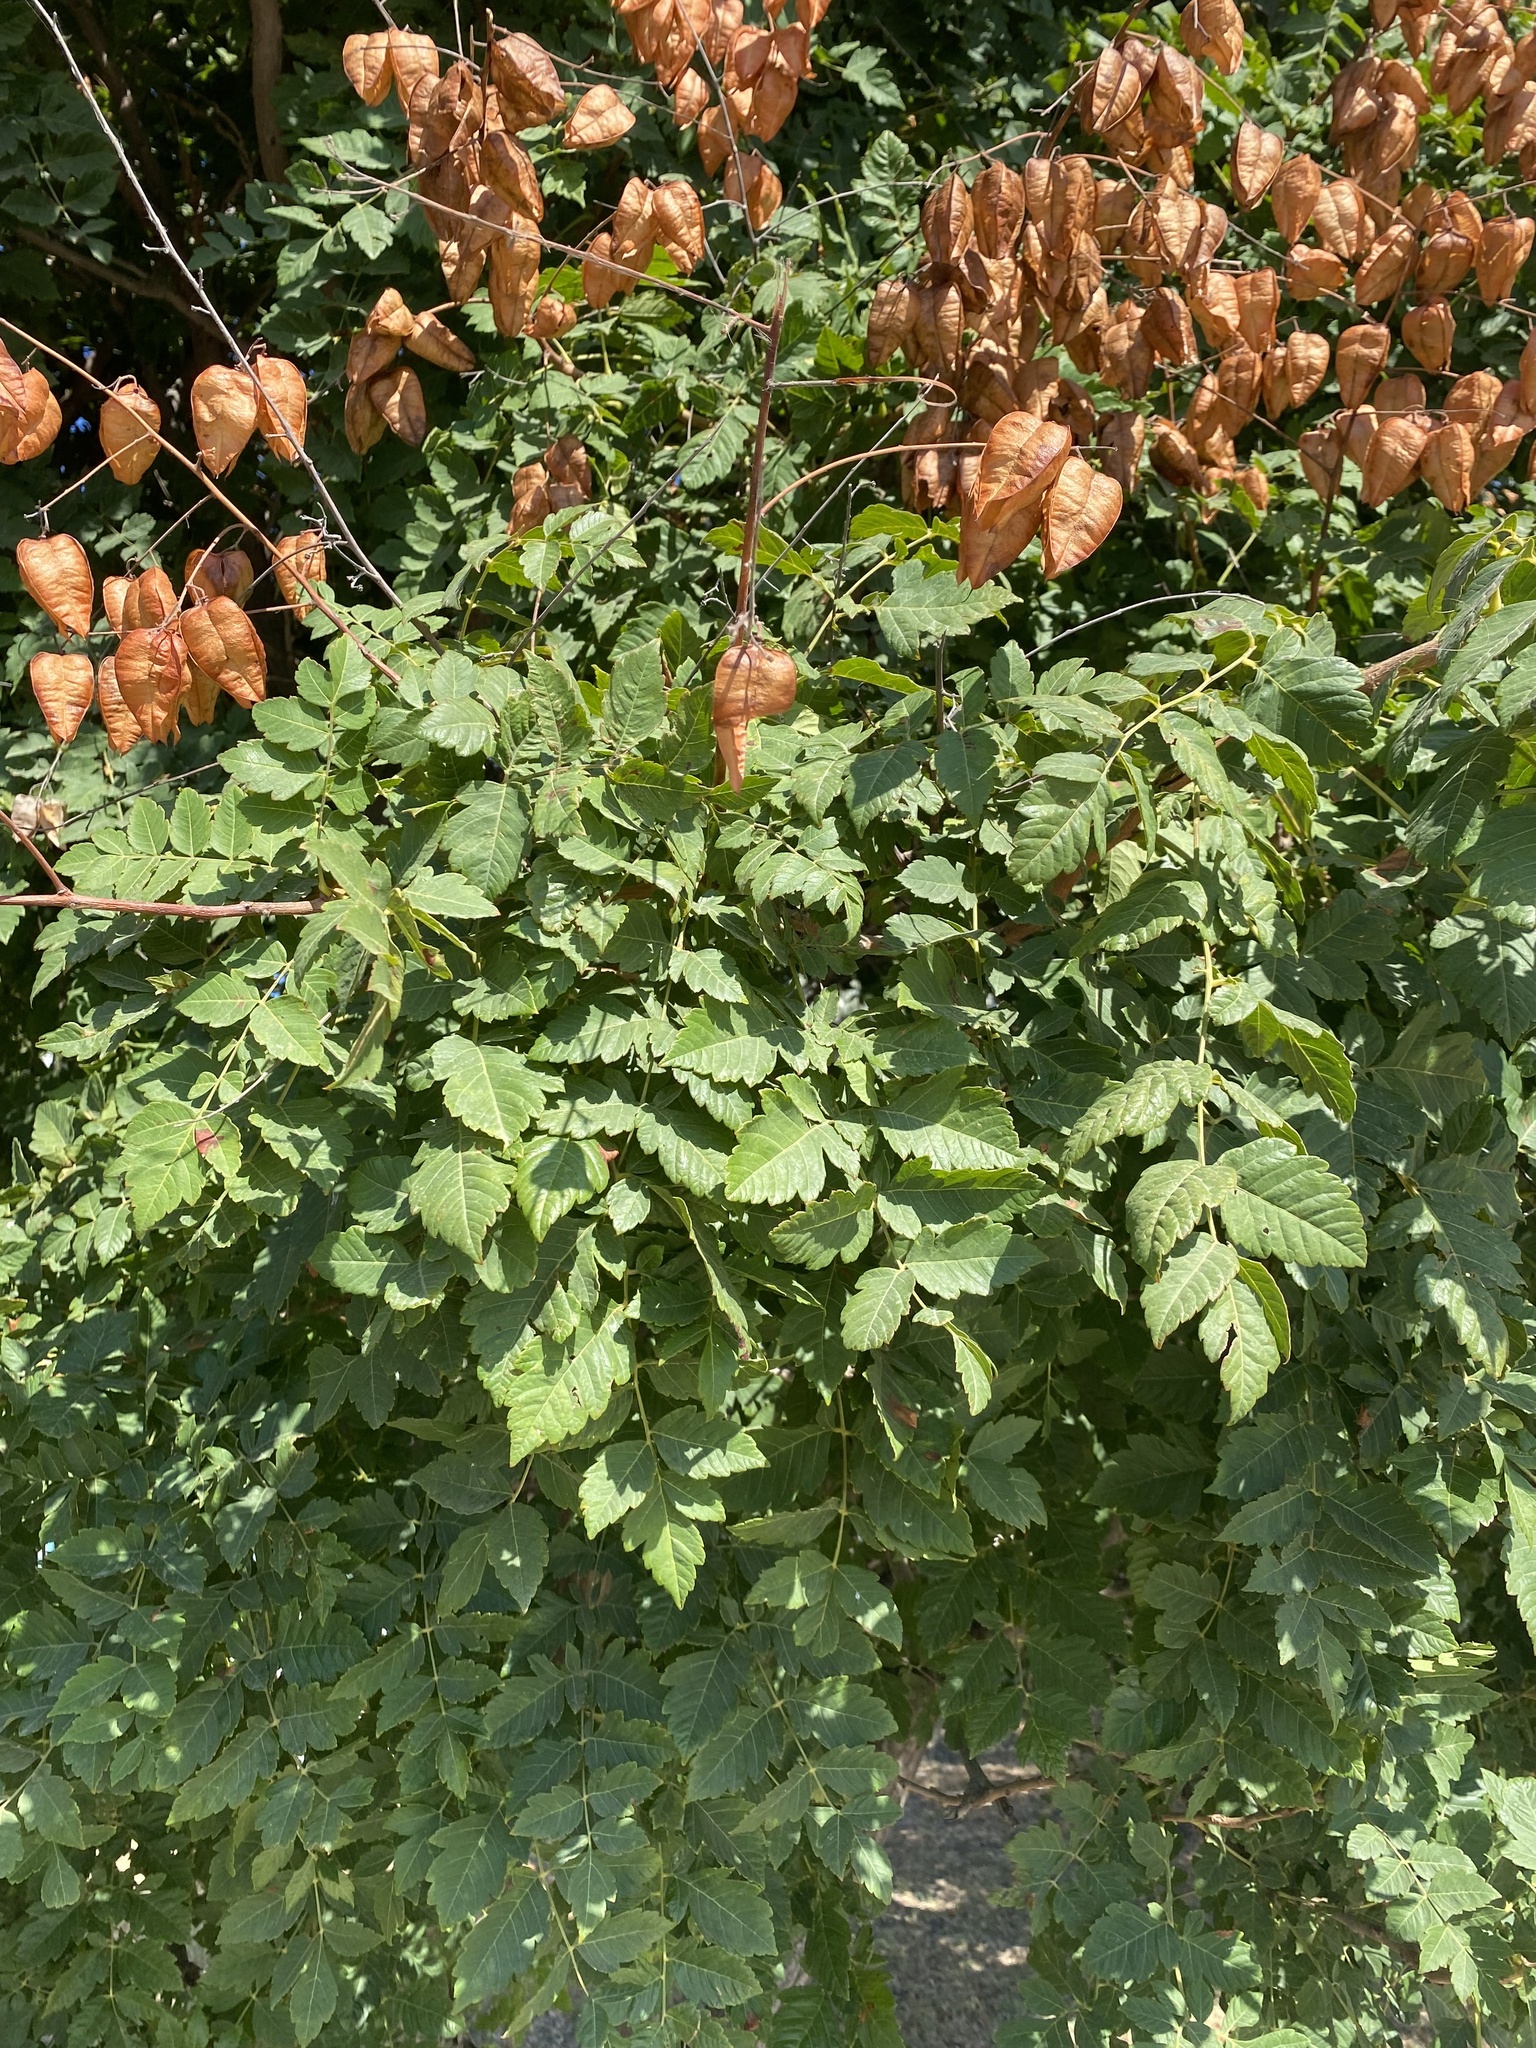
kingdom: Plantae
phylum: Tracheophyta
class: Magnoliopsida
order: Sapindales
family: Sapindaceae
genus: Koelreuteria
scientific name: Koelreuteria paniculata
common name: Pride-of-india
